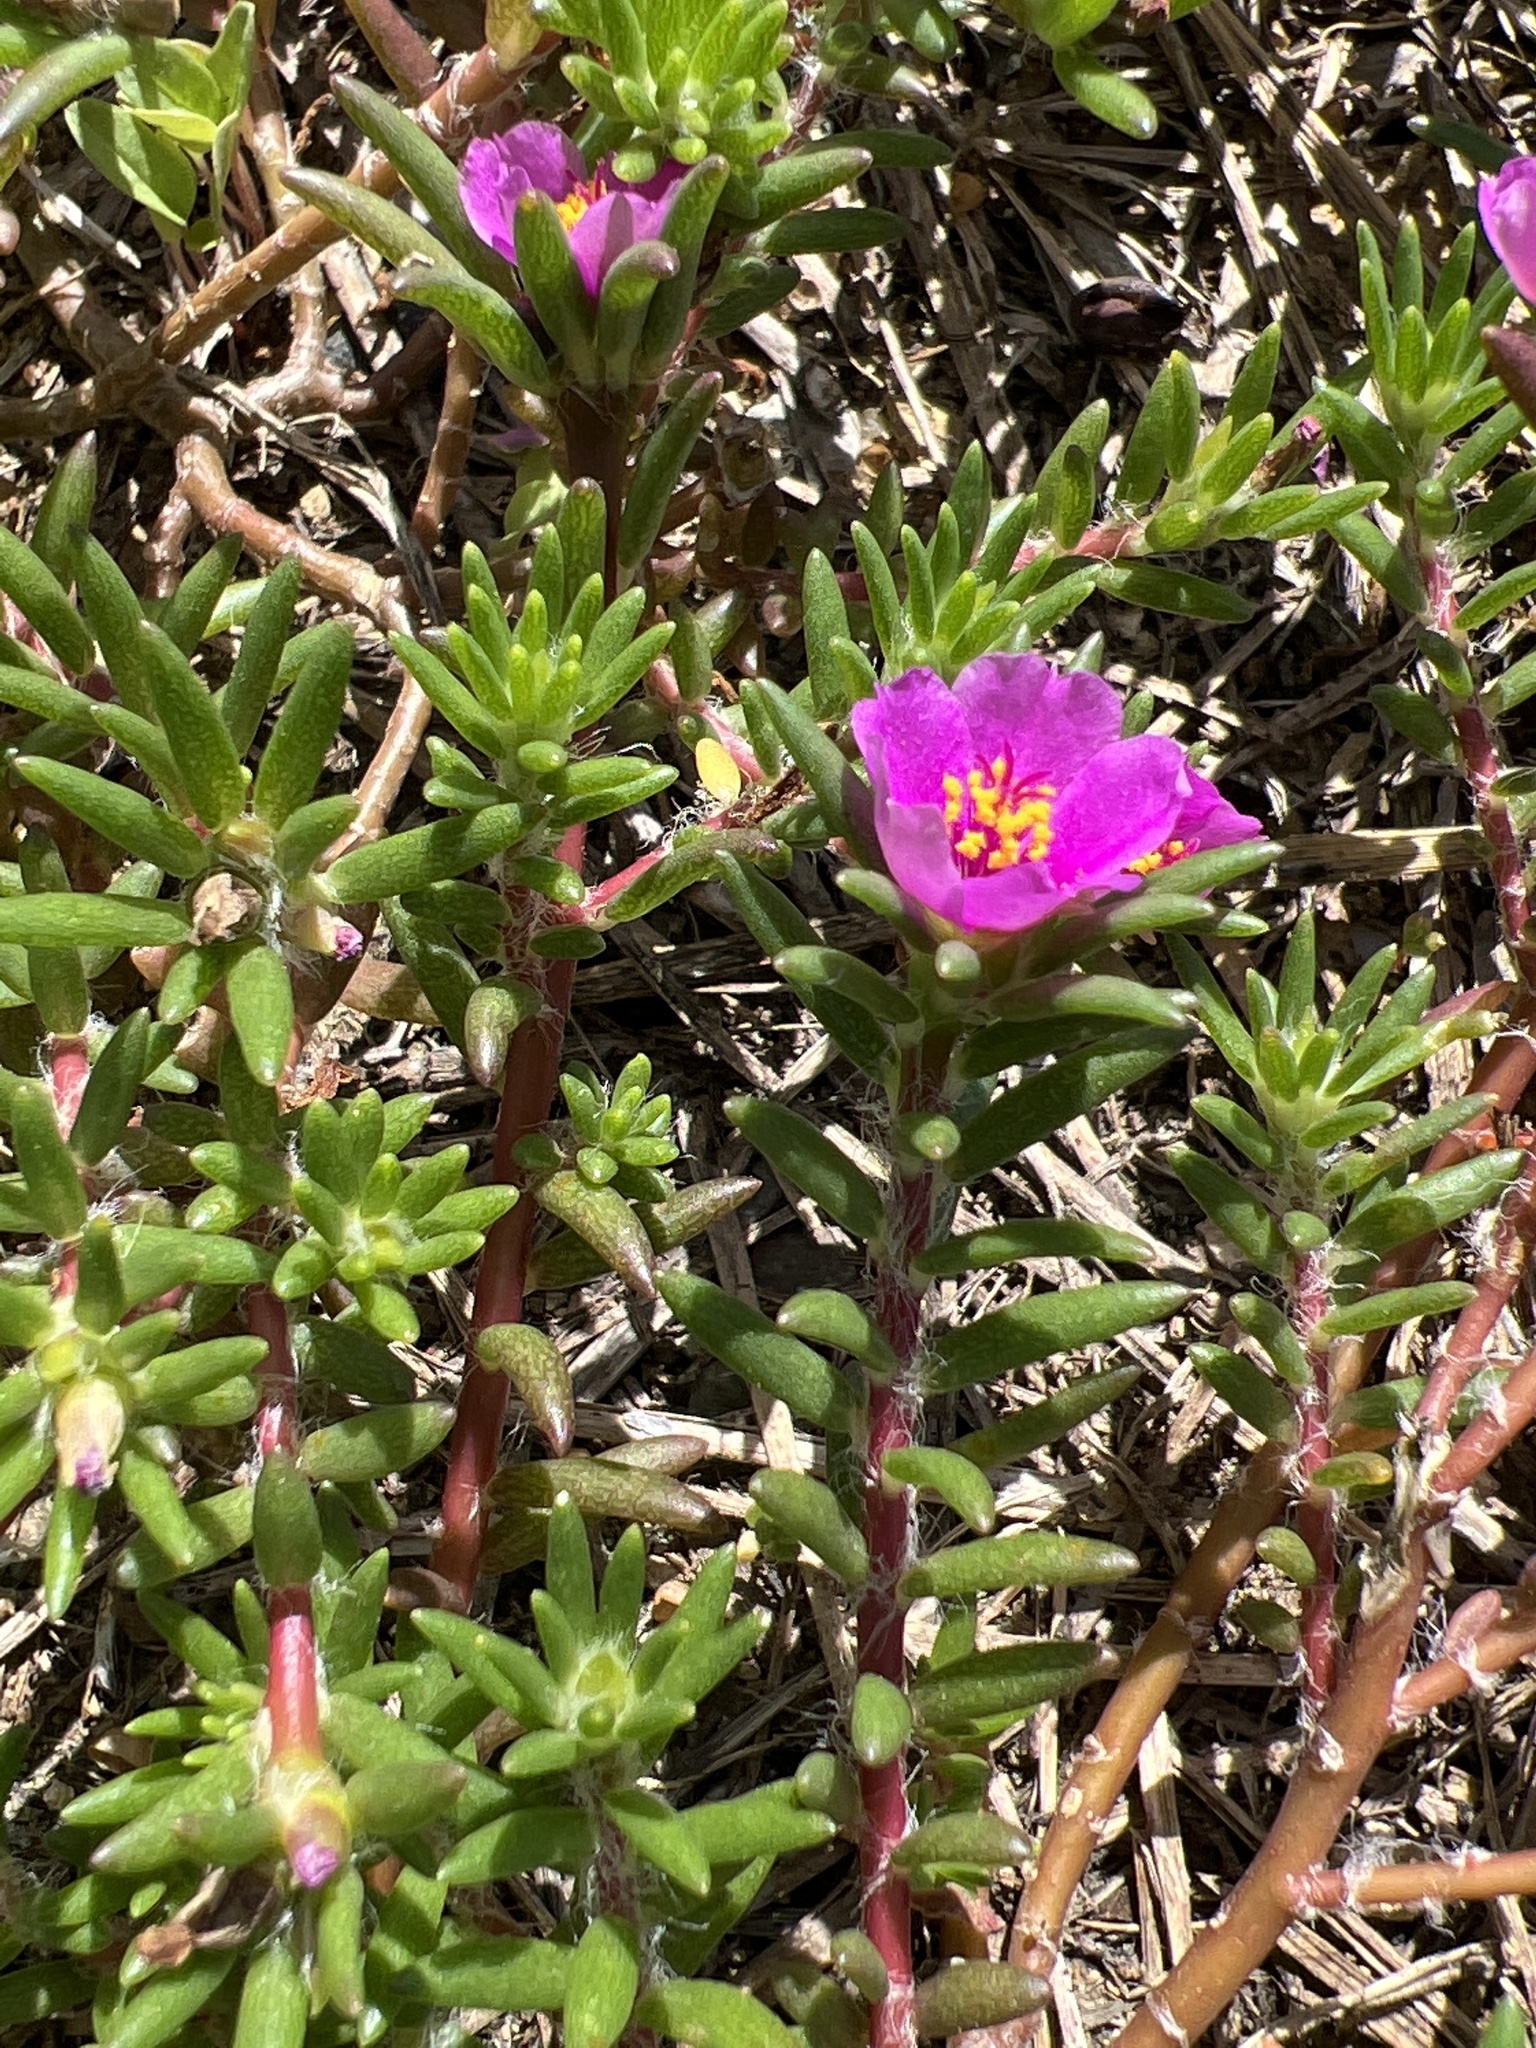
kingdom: Plantae
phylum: Tracheophyta
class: Magnoliopsida
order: Caryophyllales
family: Portulacaceae
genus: Portulaca
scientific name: Portulaca pilosa
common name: Kiss me quick
